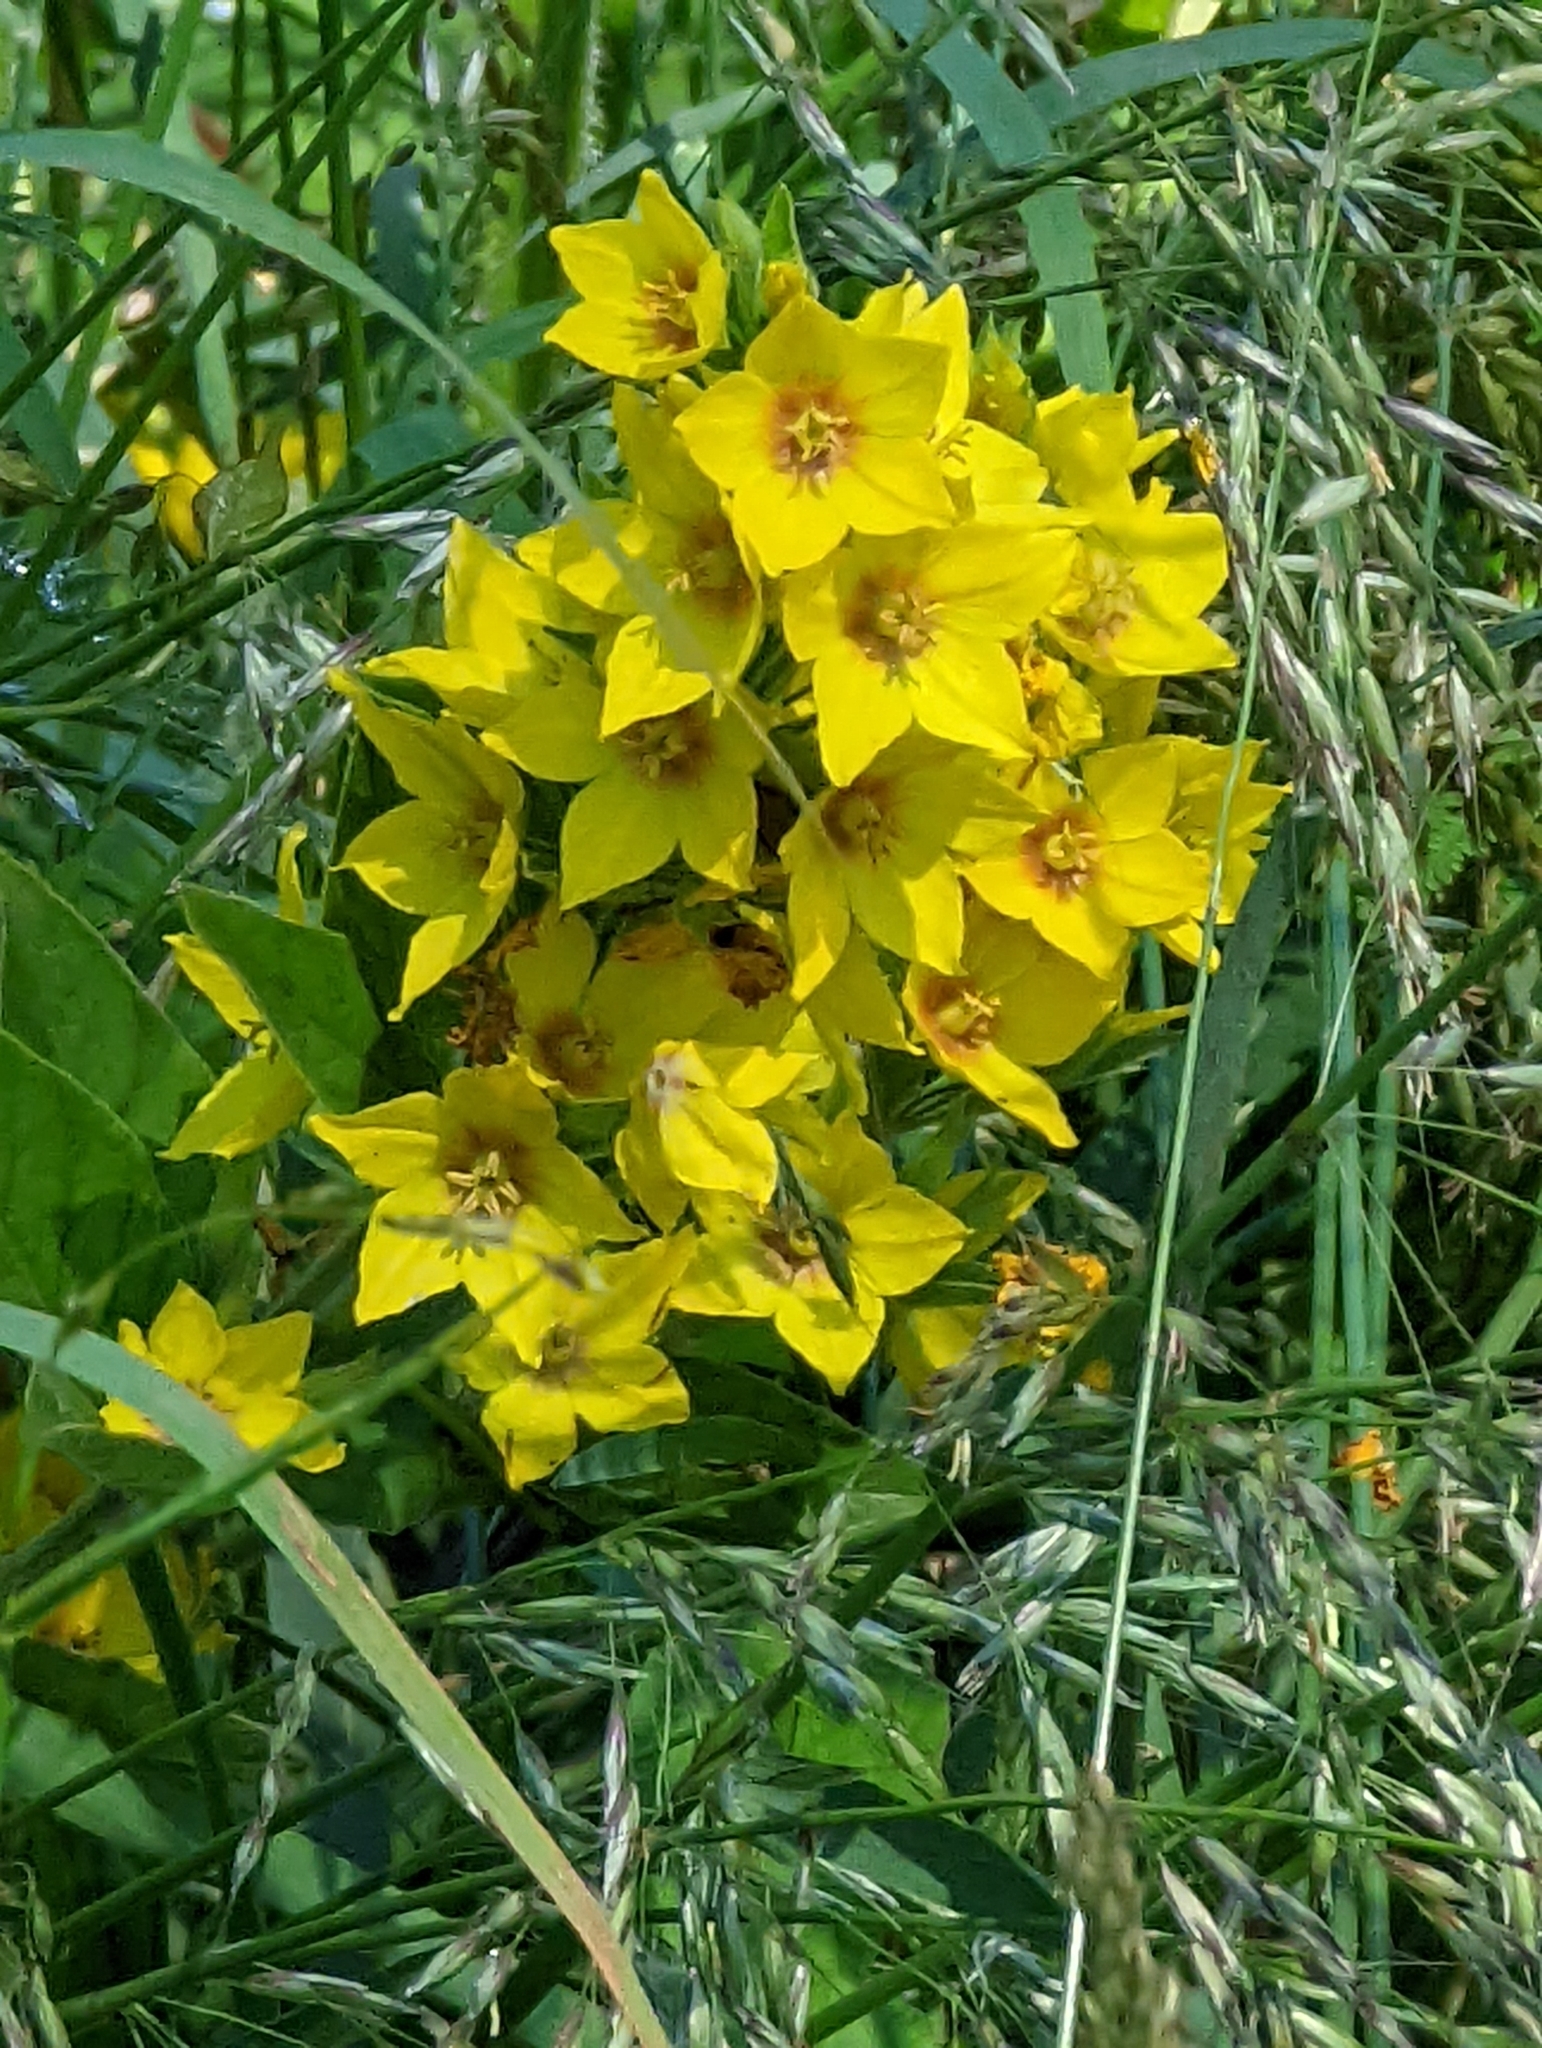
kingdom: Plantae
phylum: Tracheophyta
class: Magnoliopsida
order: Ericales
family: Primulaceae
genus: Lysimachia
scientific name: Lysimachia punctata
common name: Dotted loosestrife
